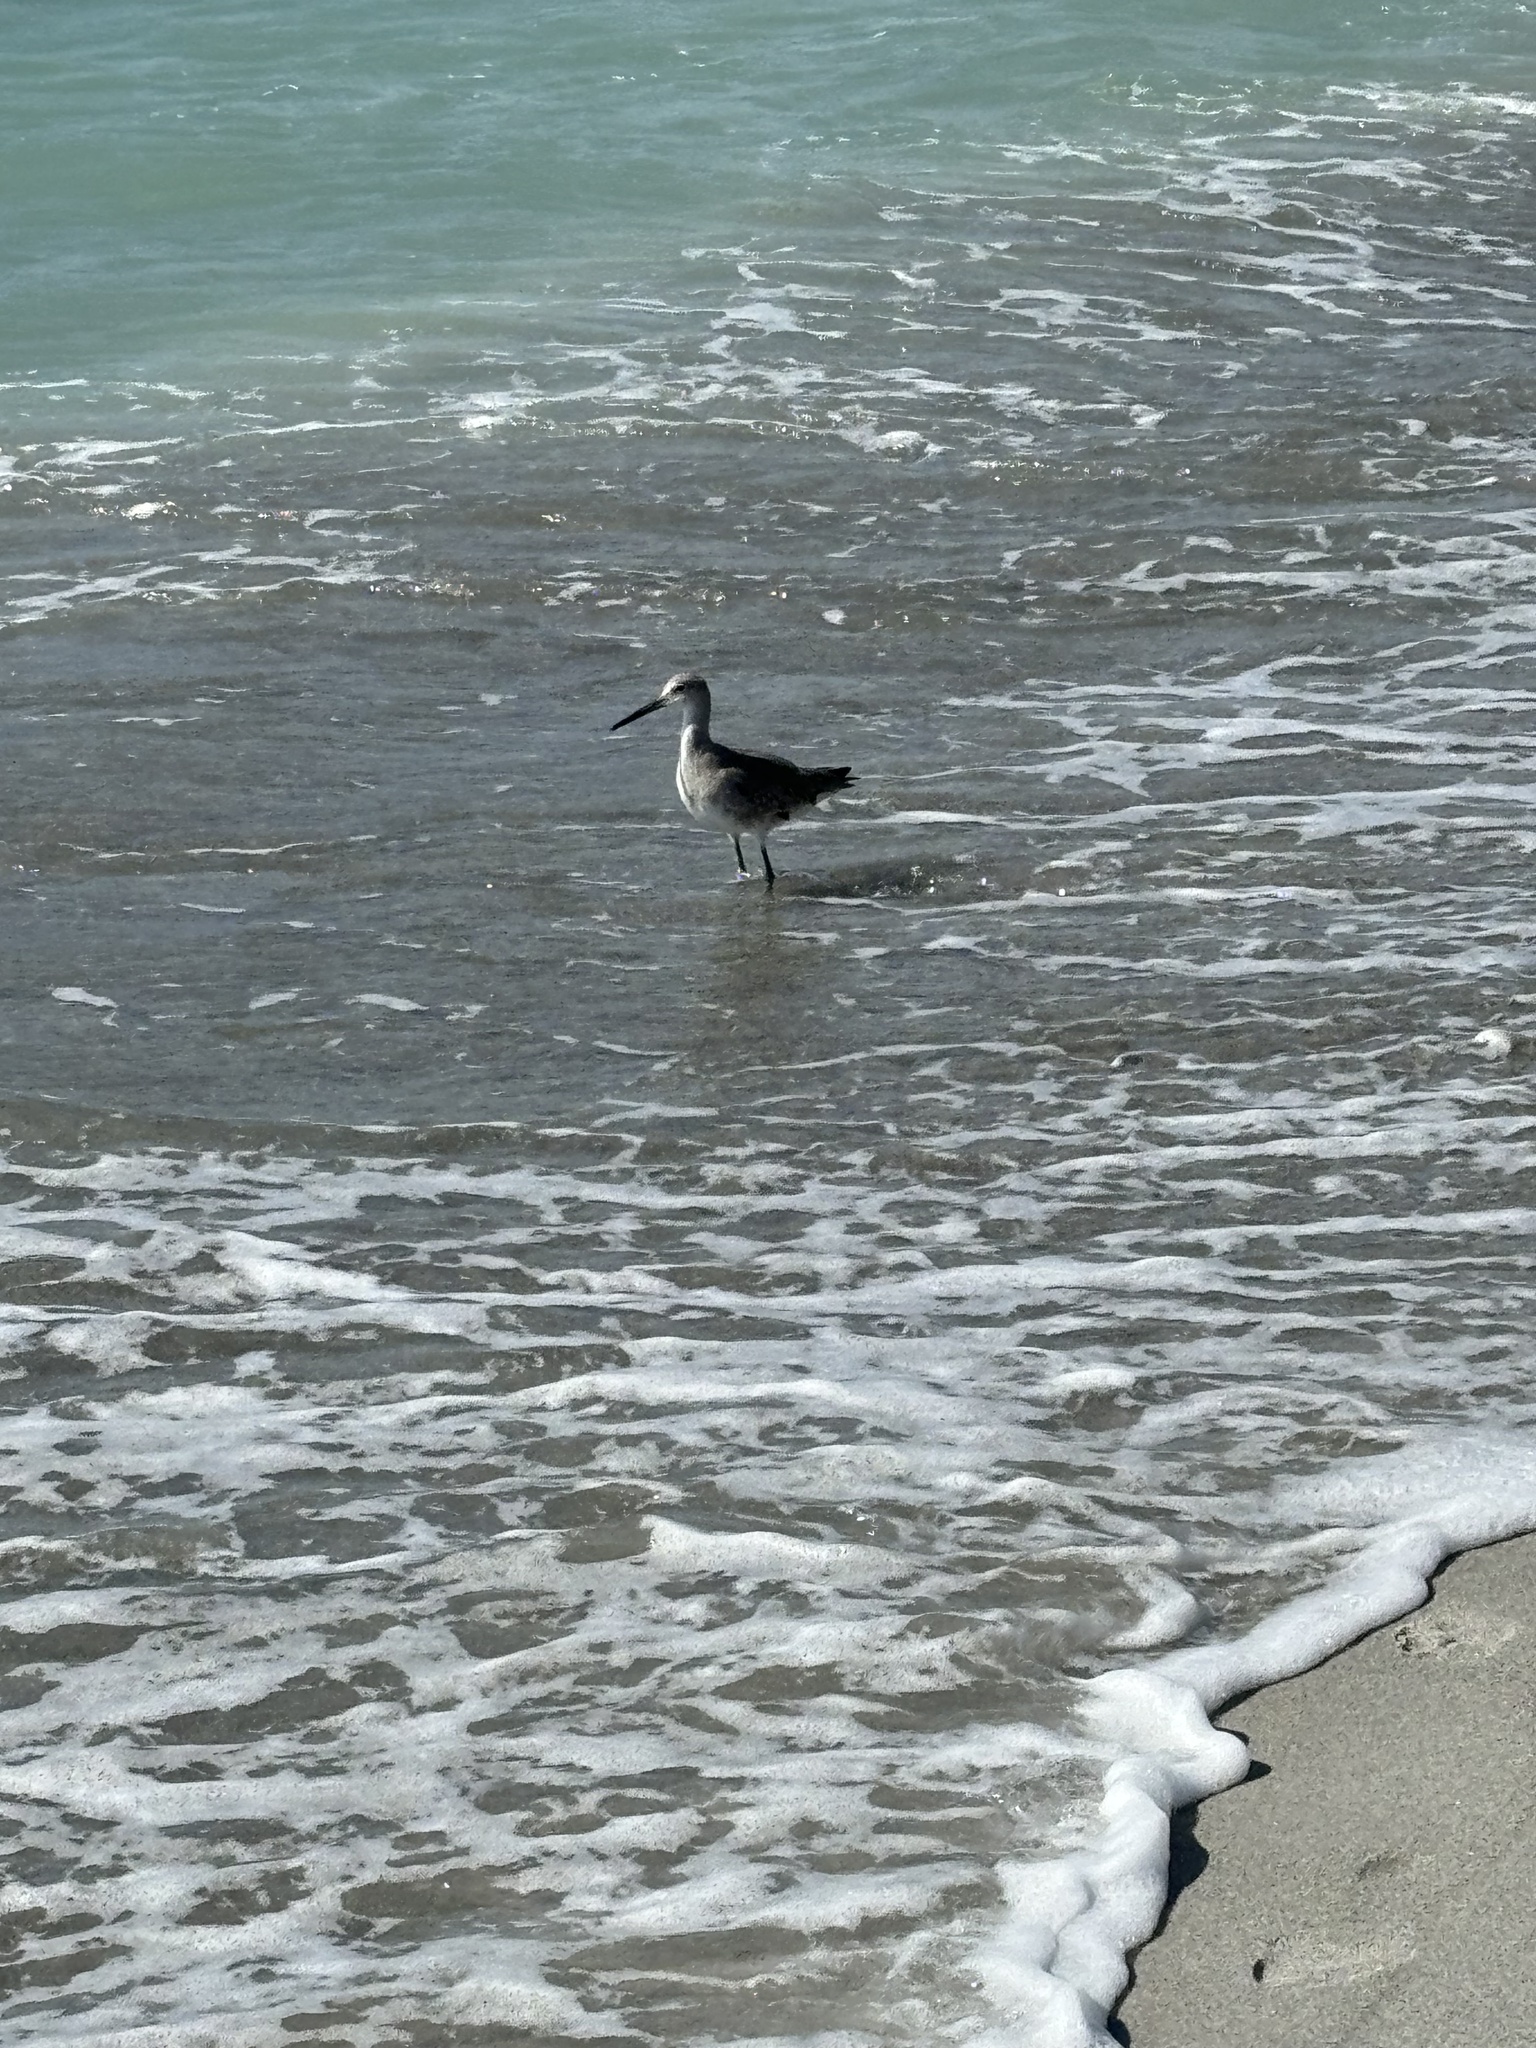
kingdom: Animalia
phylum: Chordata
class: Aves
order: Charadriiformes
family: Scolopacidae
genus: Tringa
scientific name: Tringa semipalmata
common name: Willet
